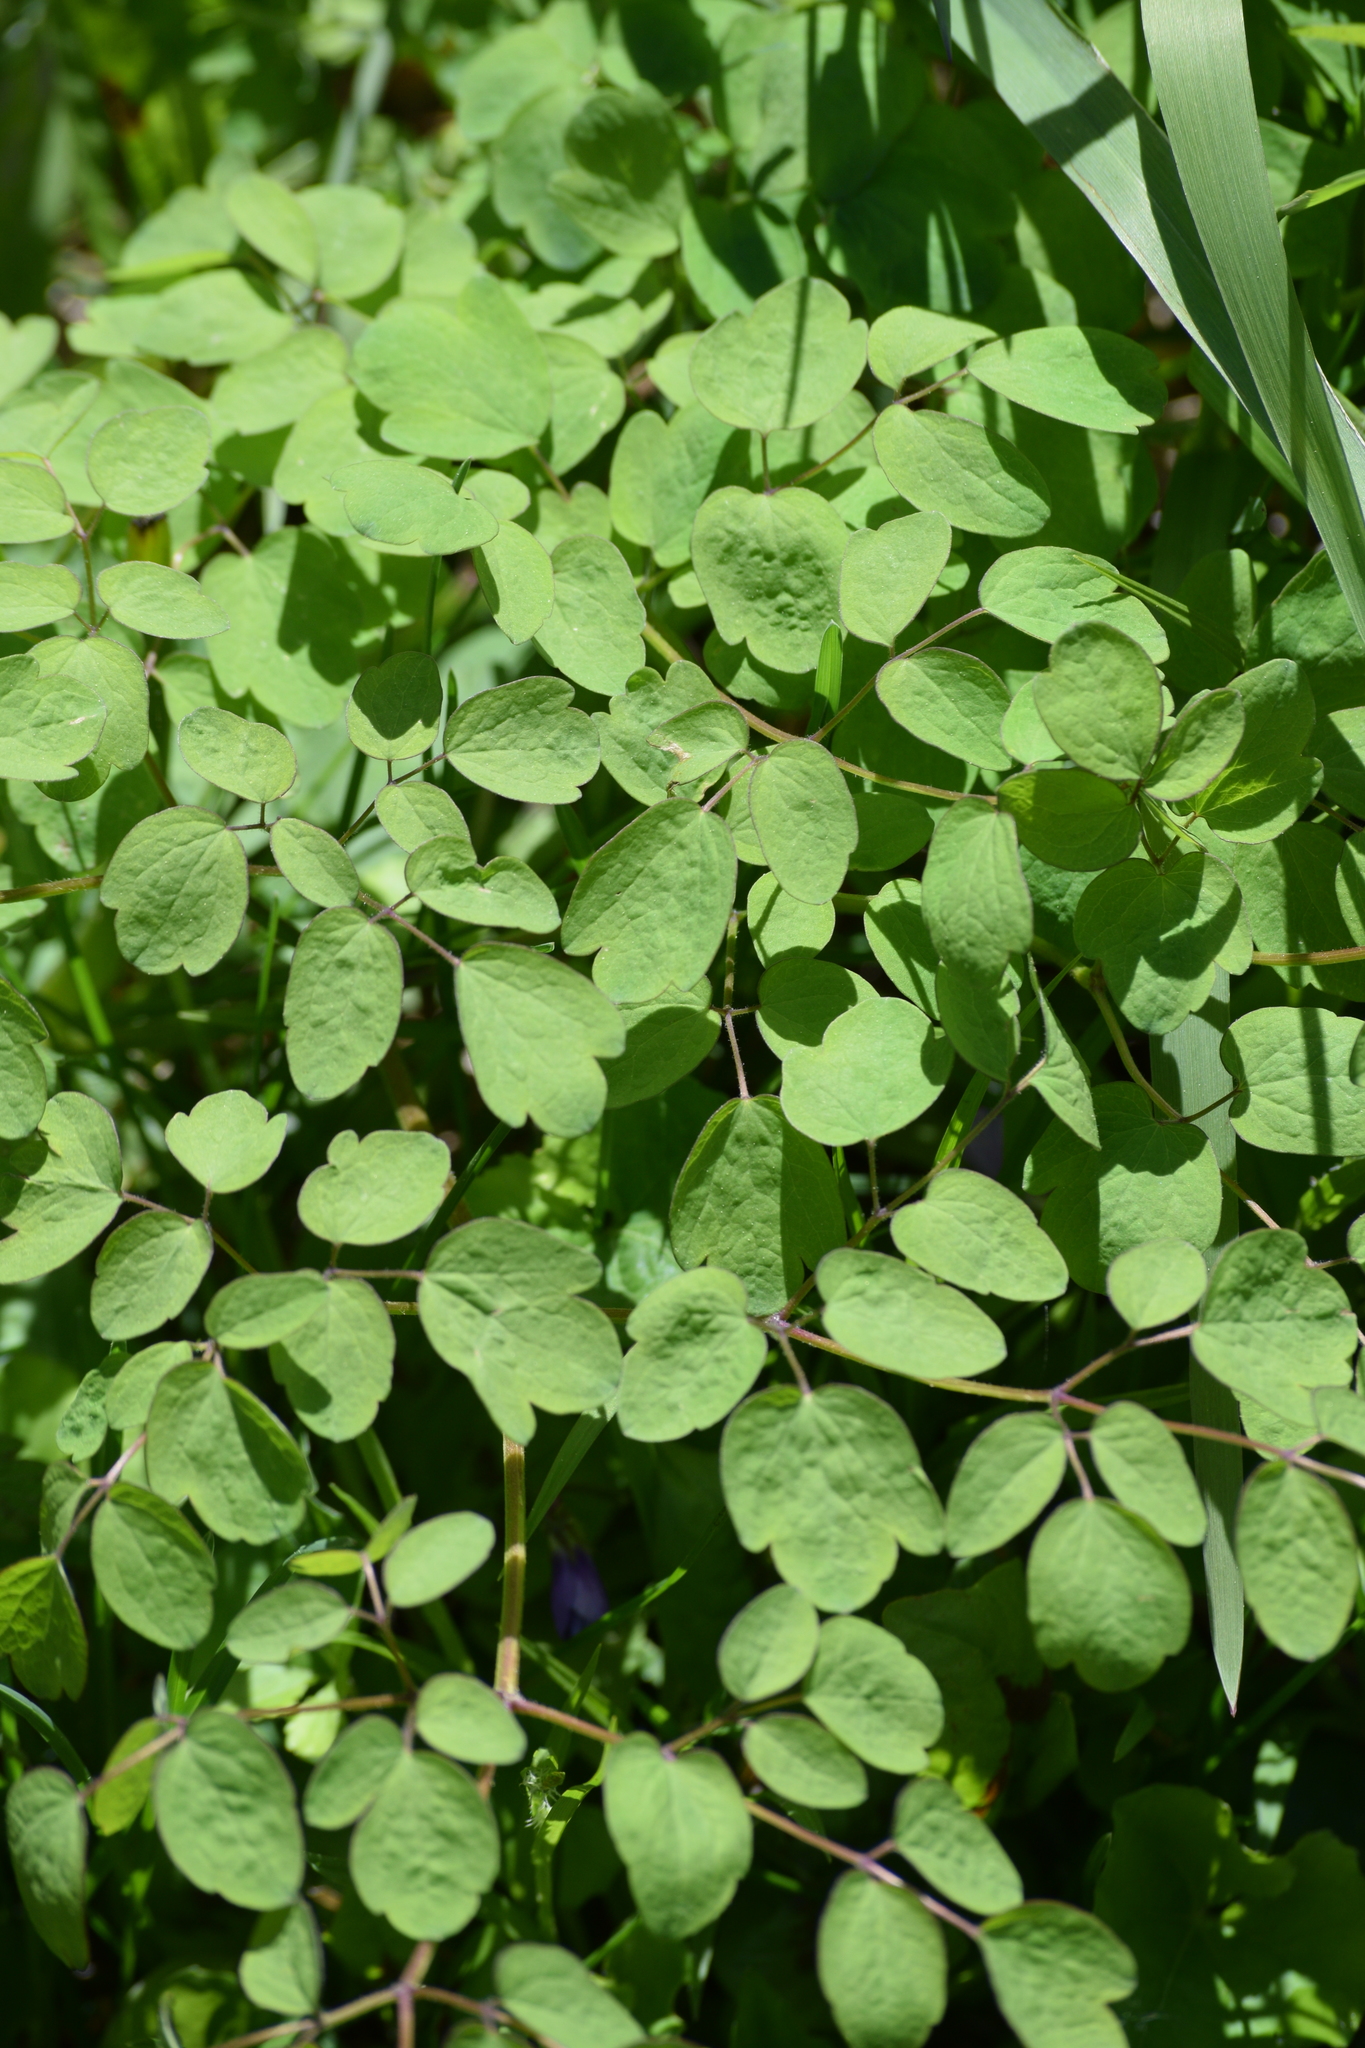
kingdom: Plantae
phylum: Tracheophyta
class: Magnoliopsida
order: Ranunculales
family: Ranunculaceae
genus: Thalictrum
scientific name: Thalictrum pubescens
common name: King-of-the-meadow
